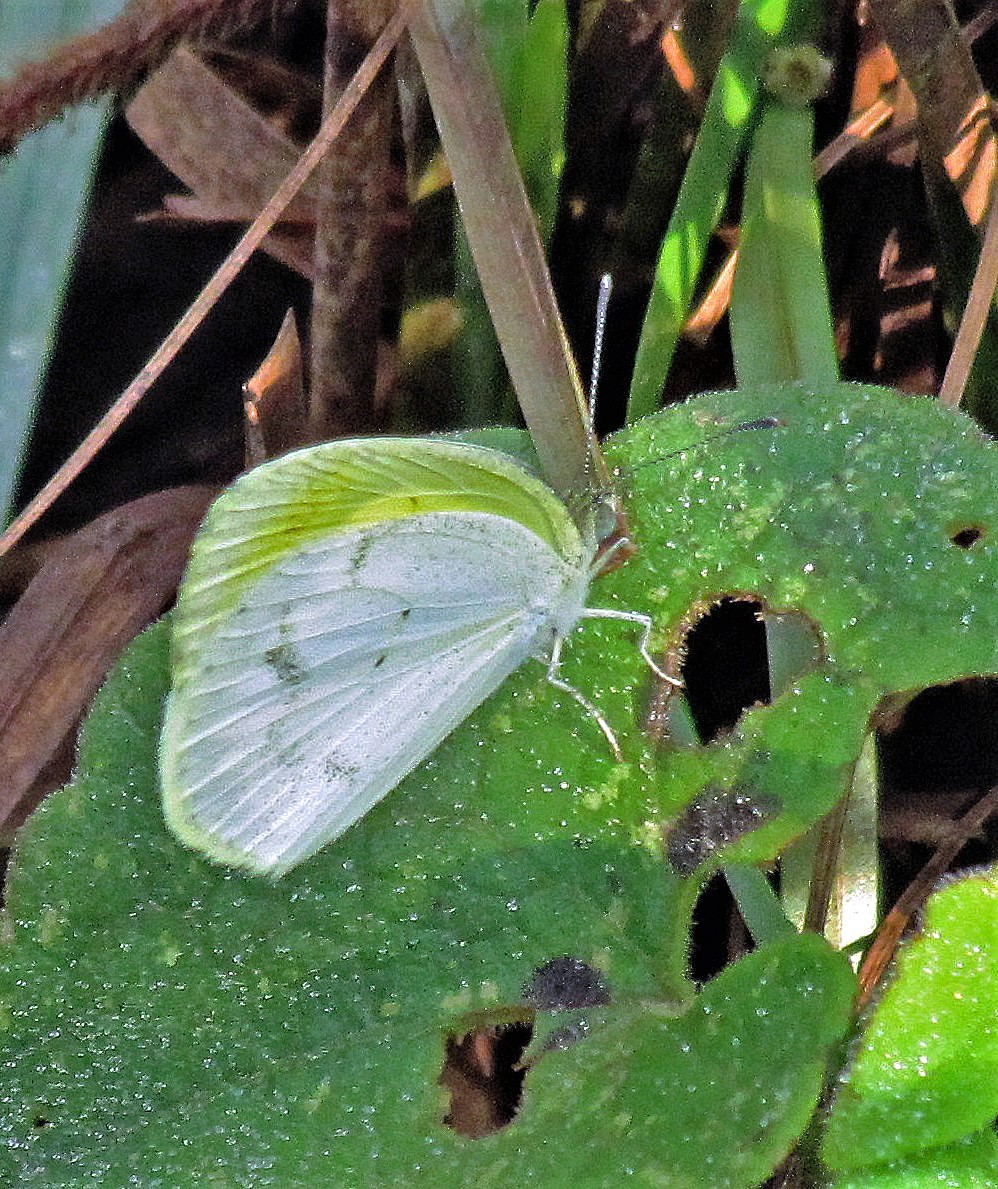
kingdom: Animalia
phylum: Arthropoda
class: Insecta
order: Lepidoptera
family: Pieridae
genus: Eurema
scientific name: Eurema elathea
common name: Banded yellow
